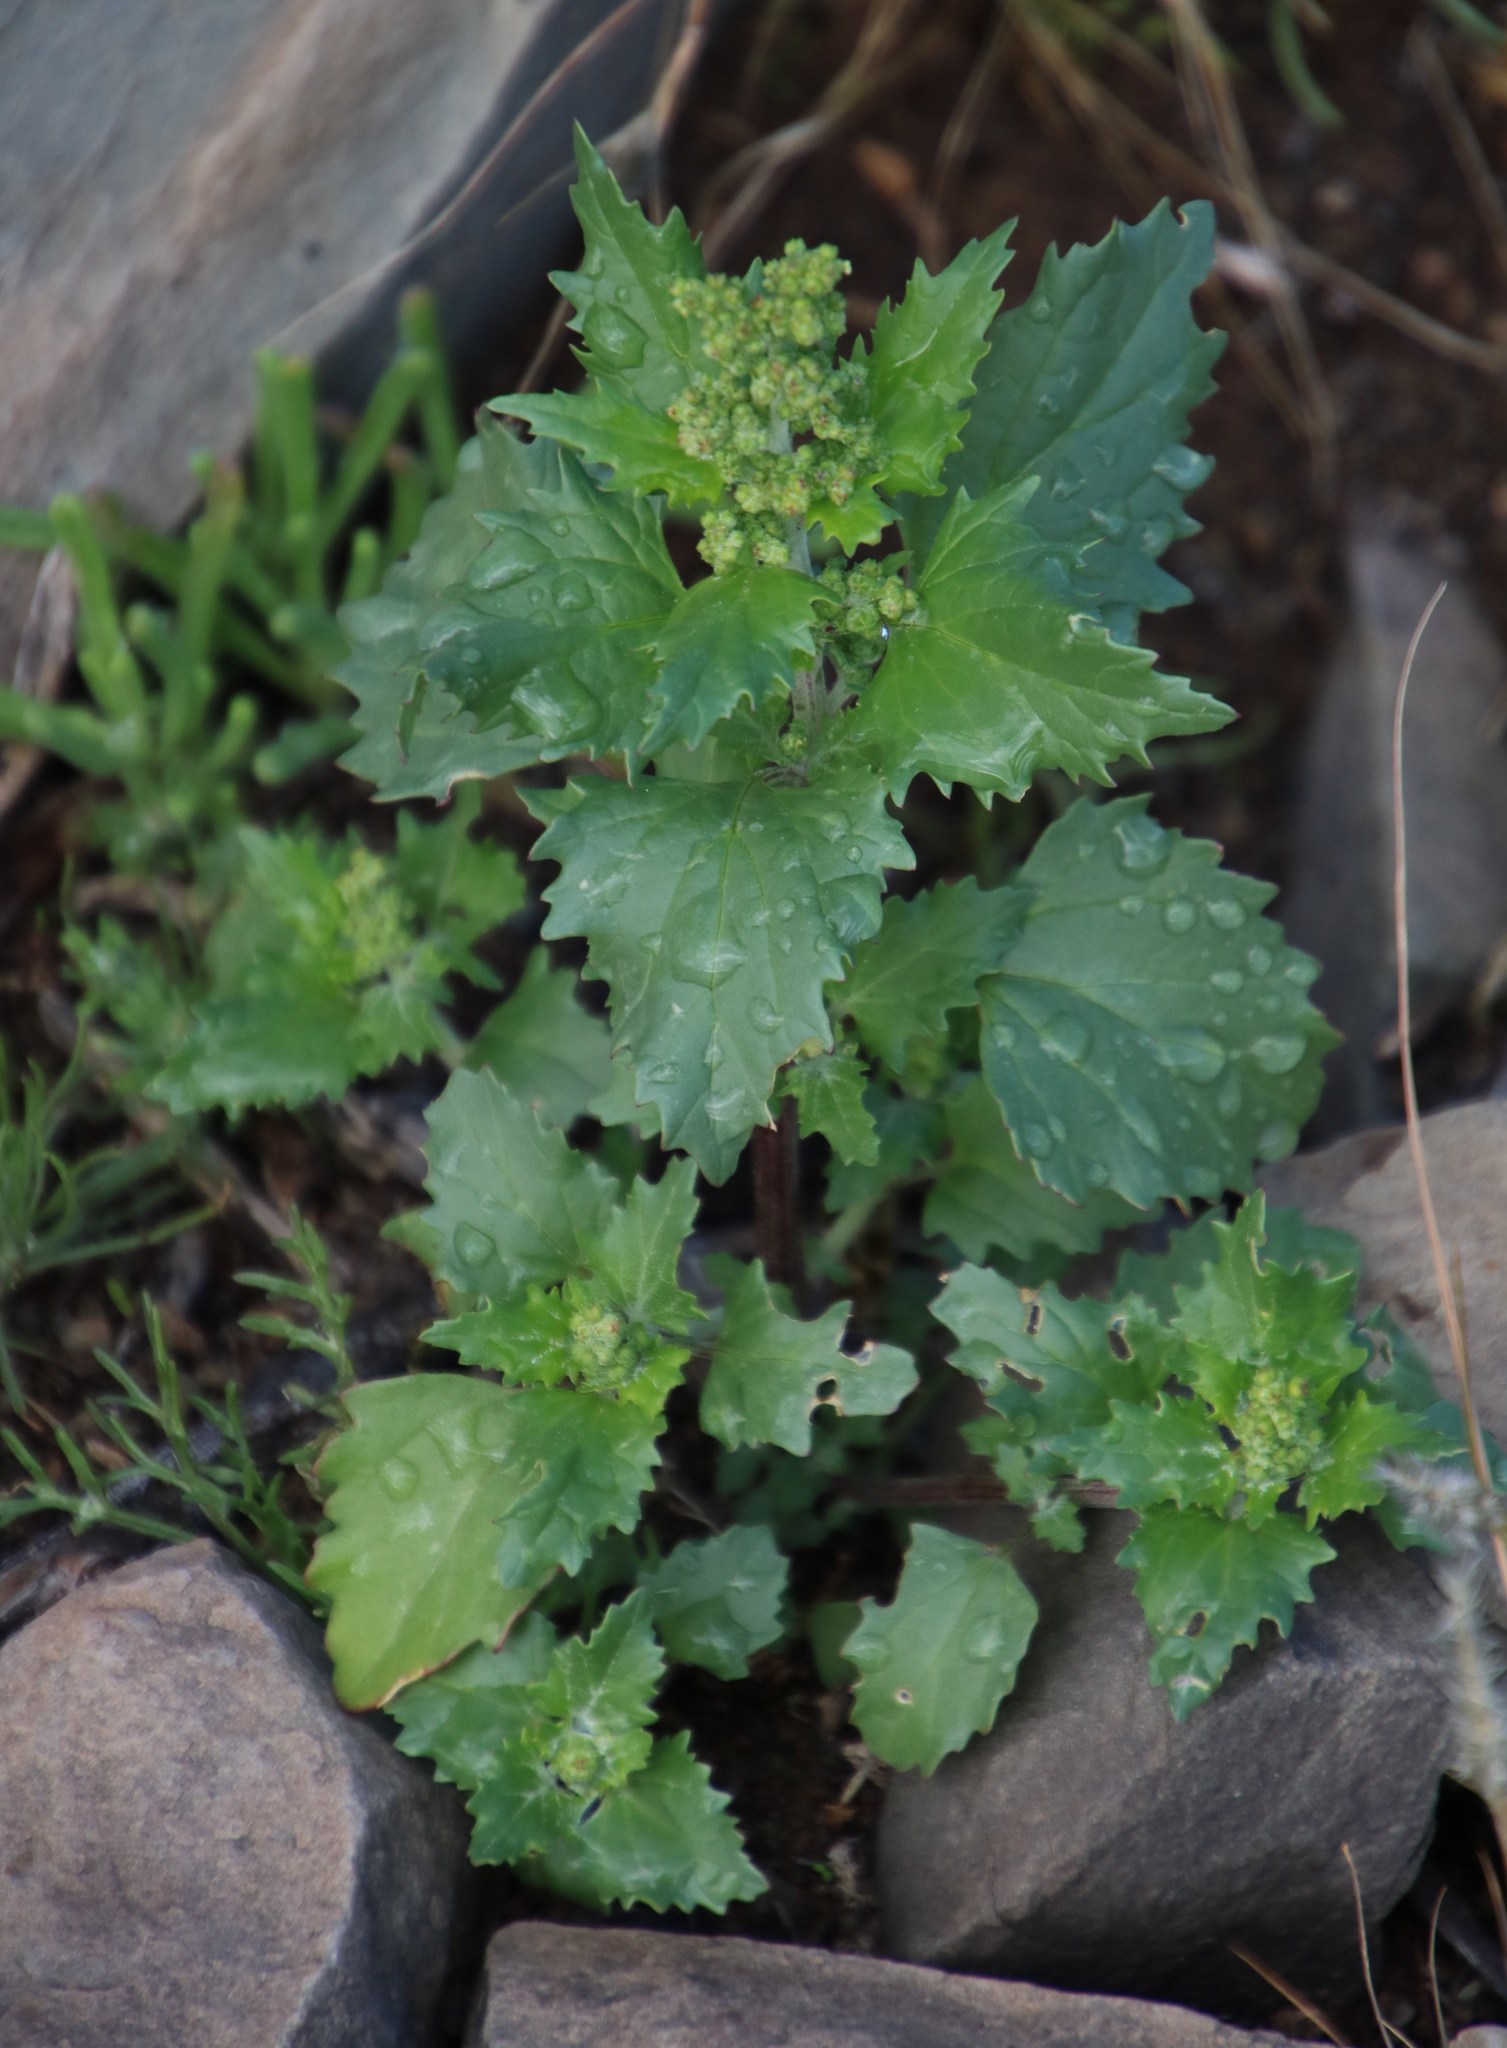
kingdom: Plantae
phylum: Tracheophyta
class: Magnoliopsida
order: Caryophyllales
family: Amaranthaceae
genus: Chenopodiastrum
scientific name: Chenopodiastrum murale
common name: Sowbane
